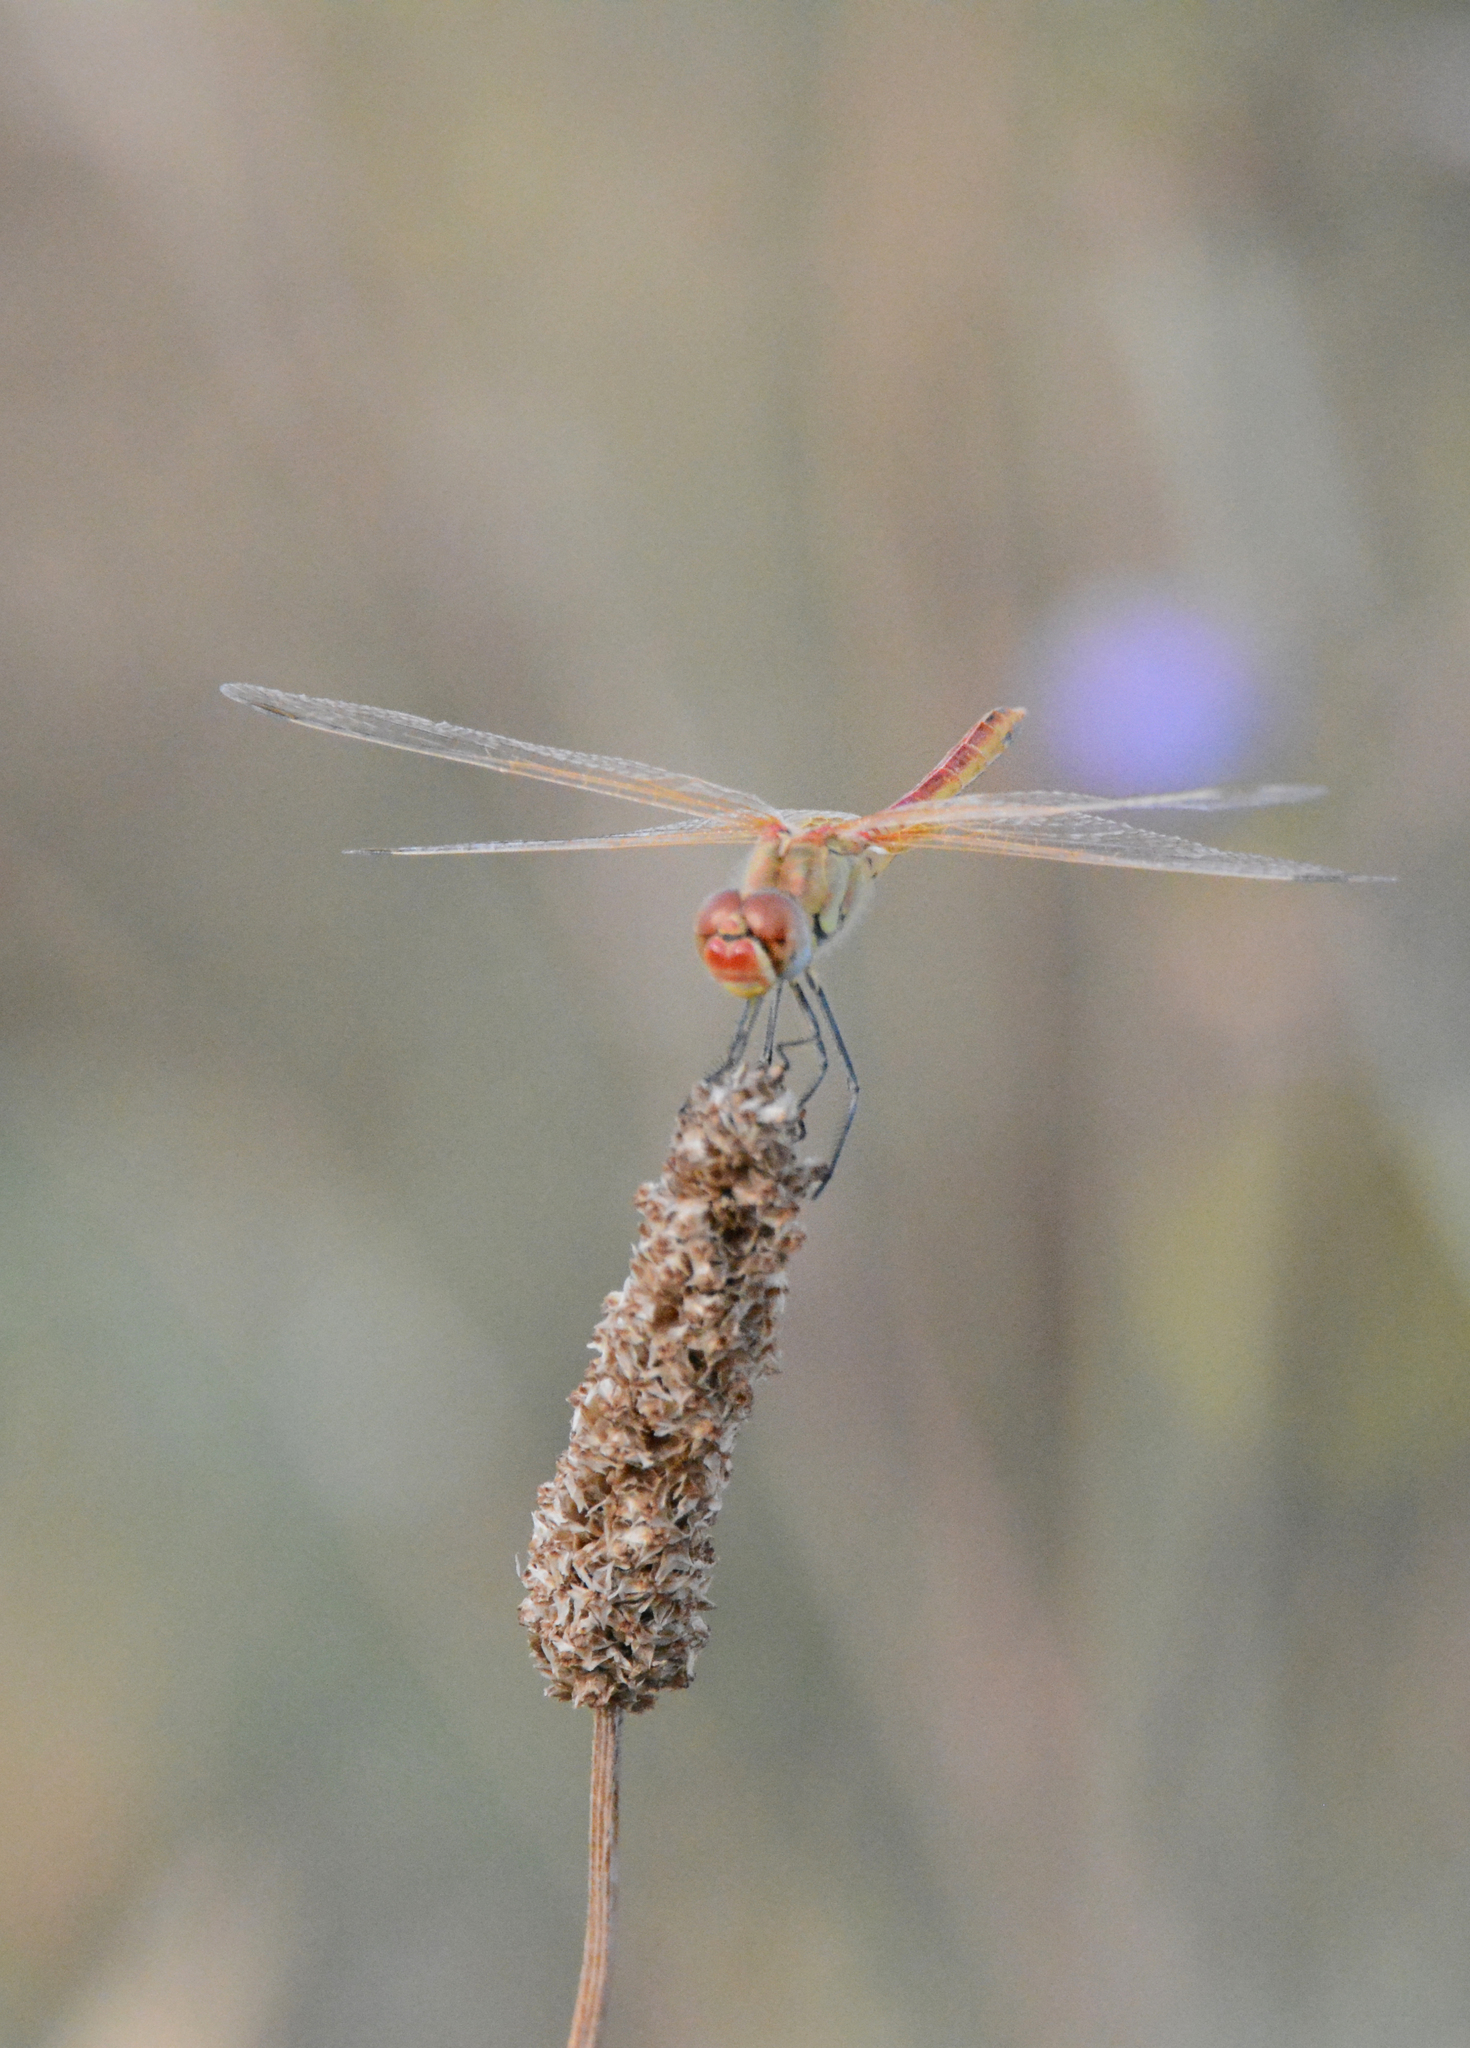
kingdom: Animalia
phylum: Arthropoda
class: Insecta
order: Odonata
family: Libellulidae
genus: Sympetrum
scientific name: Sympetrum fonscolombii
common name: Red-veined darter
